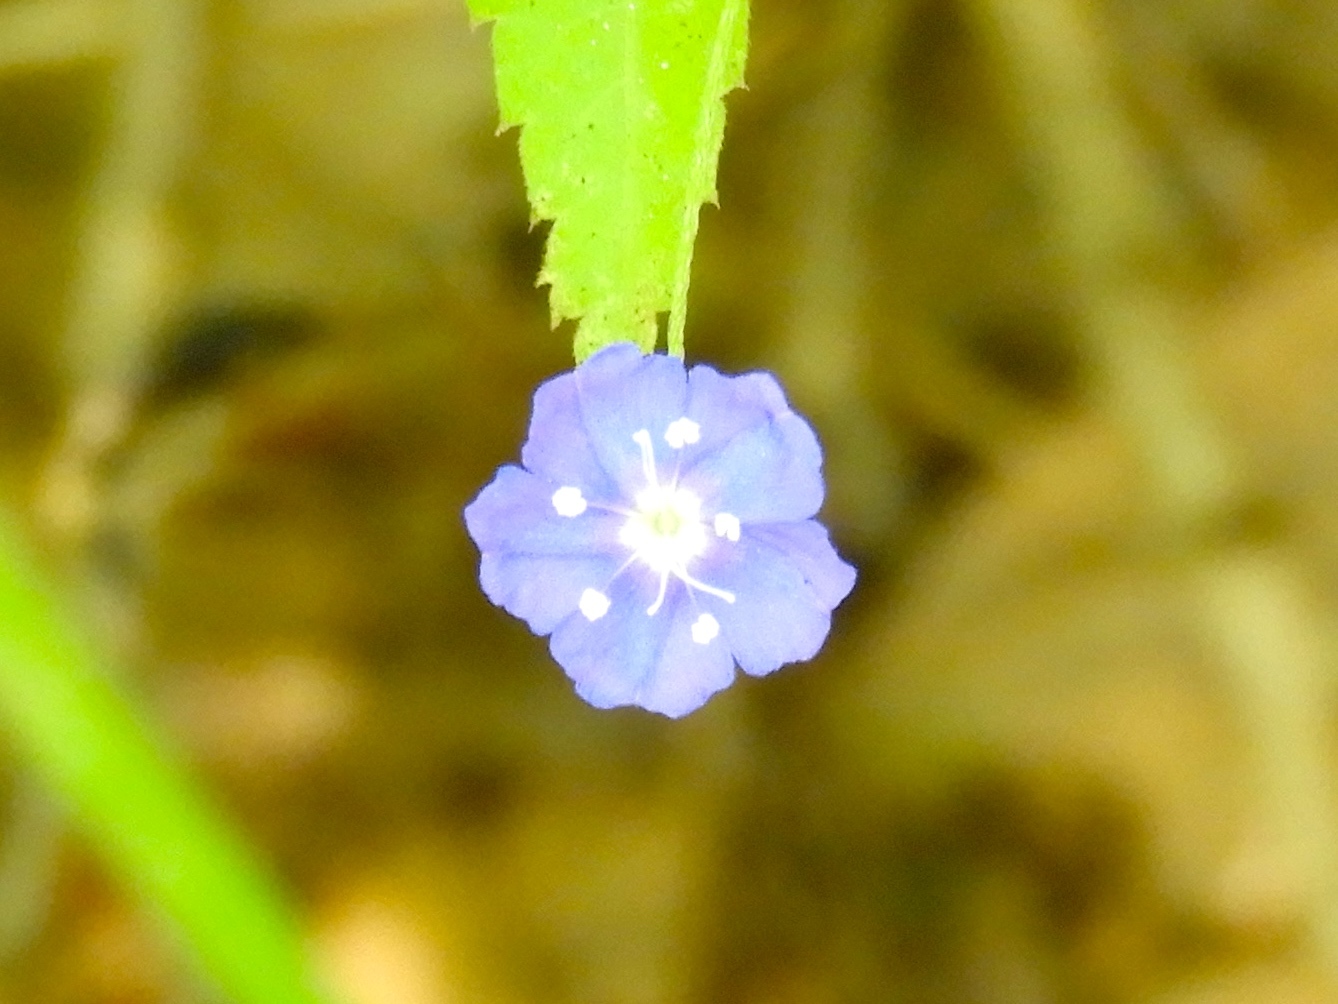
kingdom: Plantae
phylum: Tracheophyta
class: Magnoliopsida
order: Solanales
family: Convolvulaceae
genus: Evolvulus
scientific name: Evolvulus alsinoides
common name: Slender dwarf morning-glory
